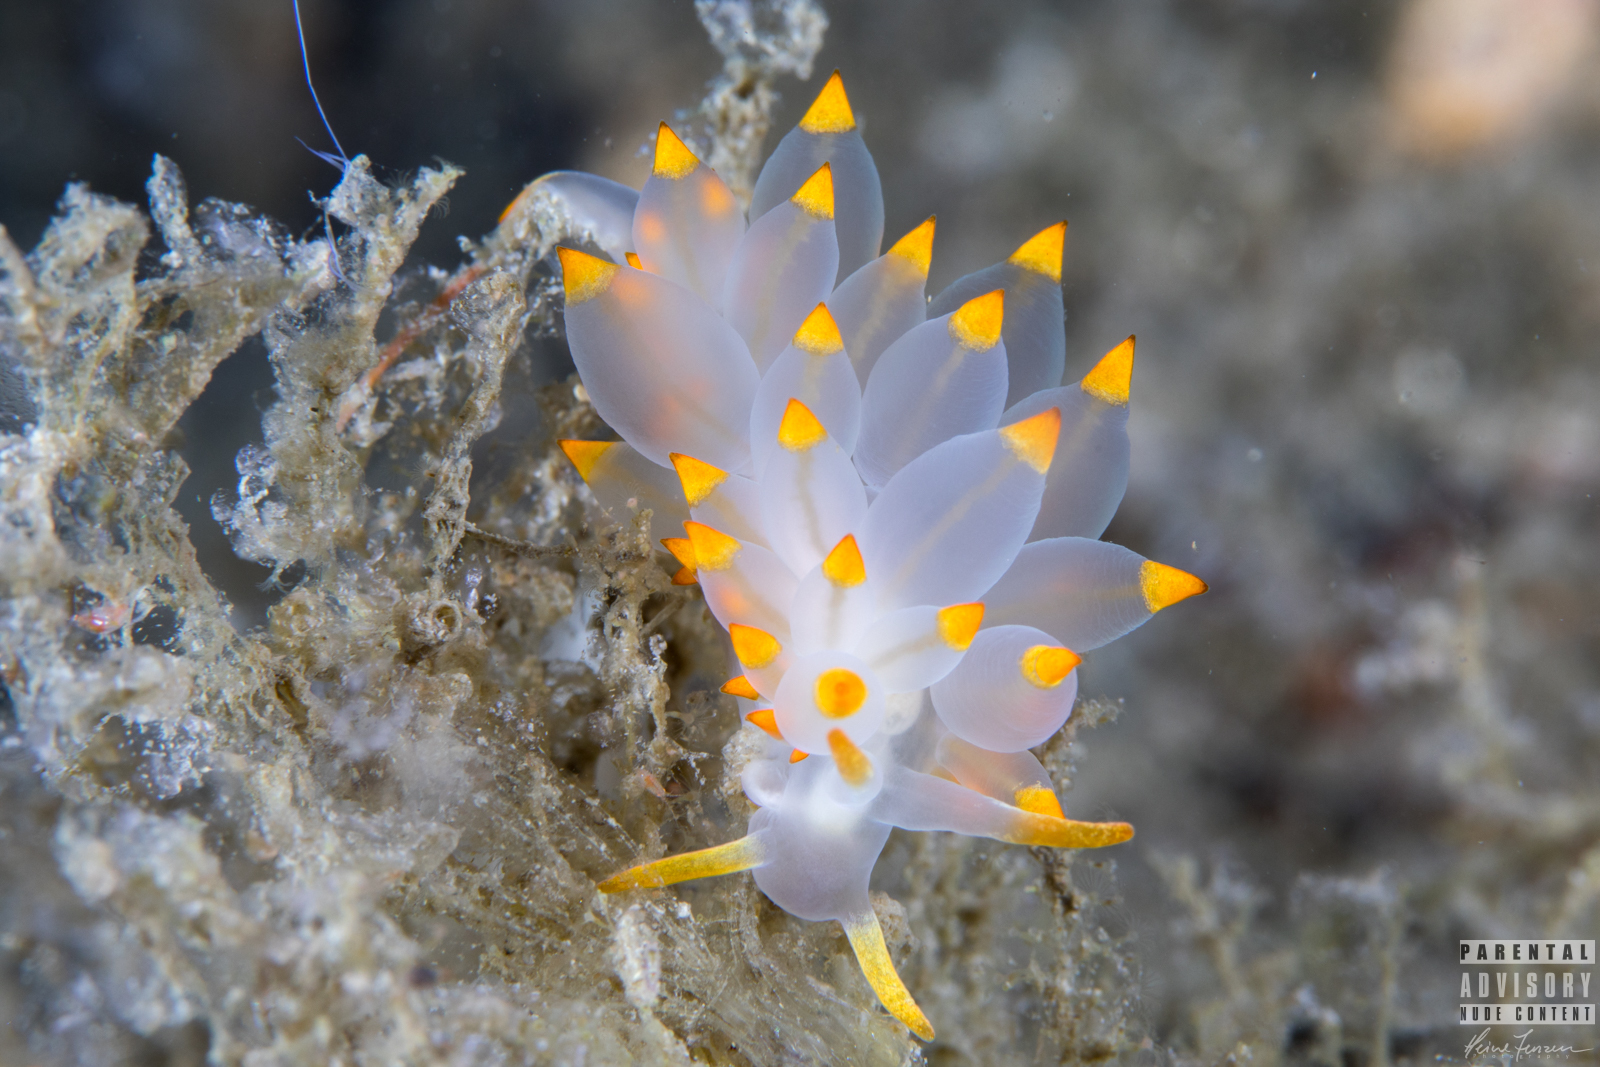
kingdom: Animalia
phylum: Mollusca
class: Gastropoda
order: Nudibranchia
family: Eubranchidae
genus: Amphorina
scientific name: Amphorina farrani
